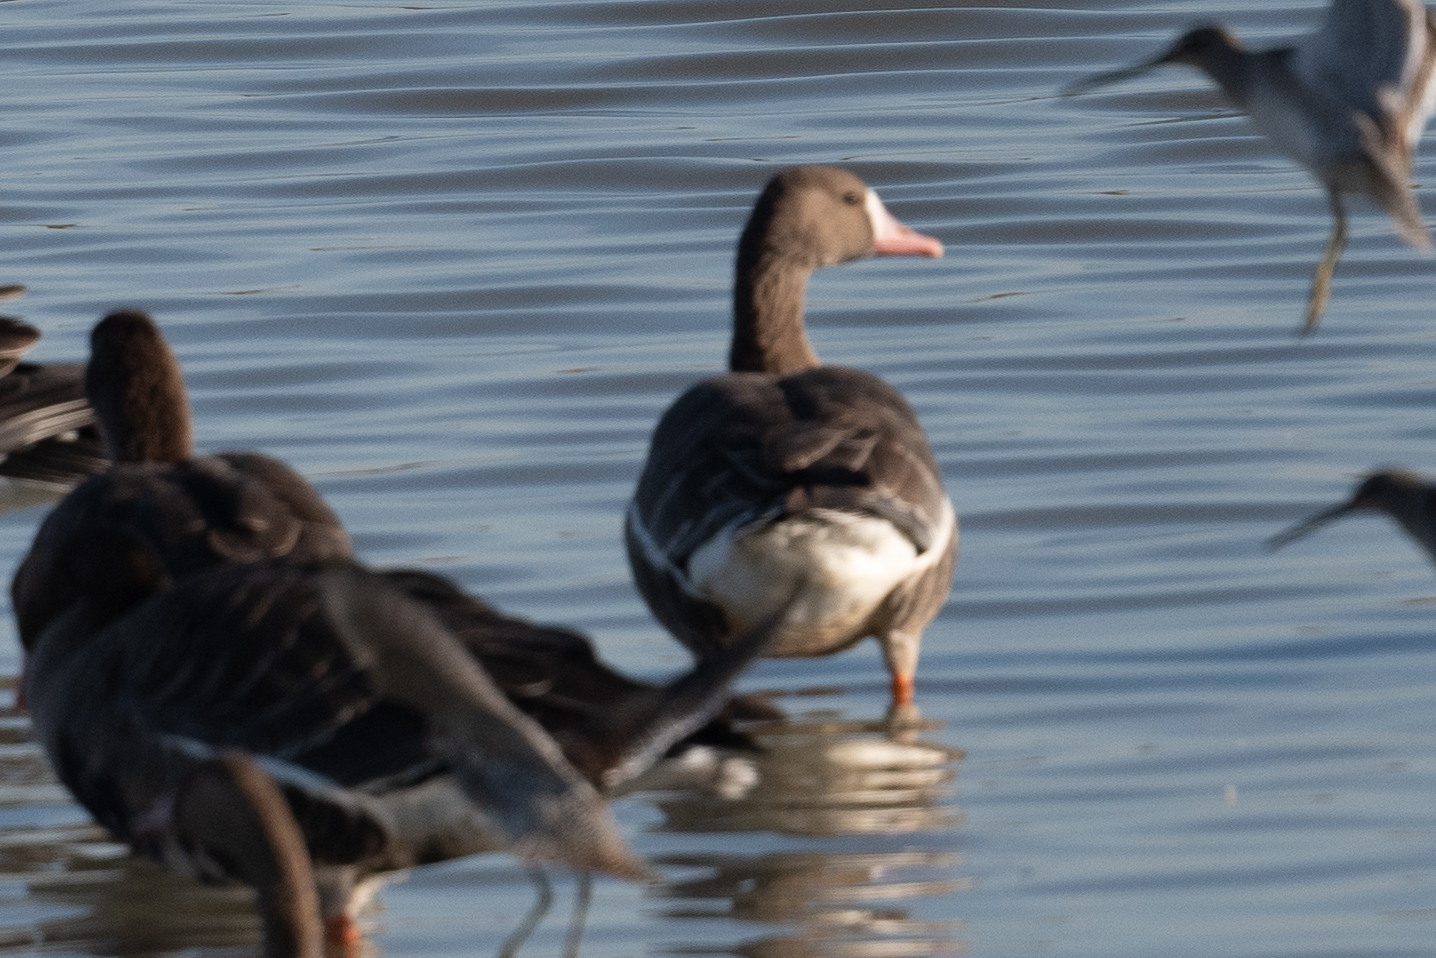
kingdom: Animalia
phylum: Chordata
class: Aves
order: Anseriformes
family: Anatidae
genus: Anser
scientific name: Anser albifrons
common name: Greater white-fronted goose
